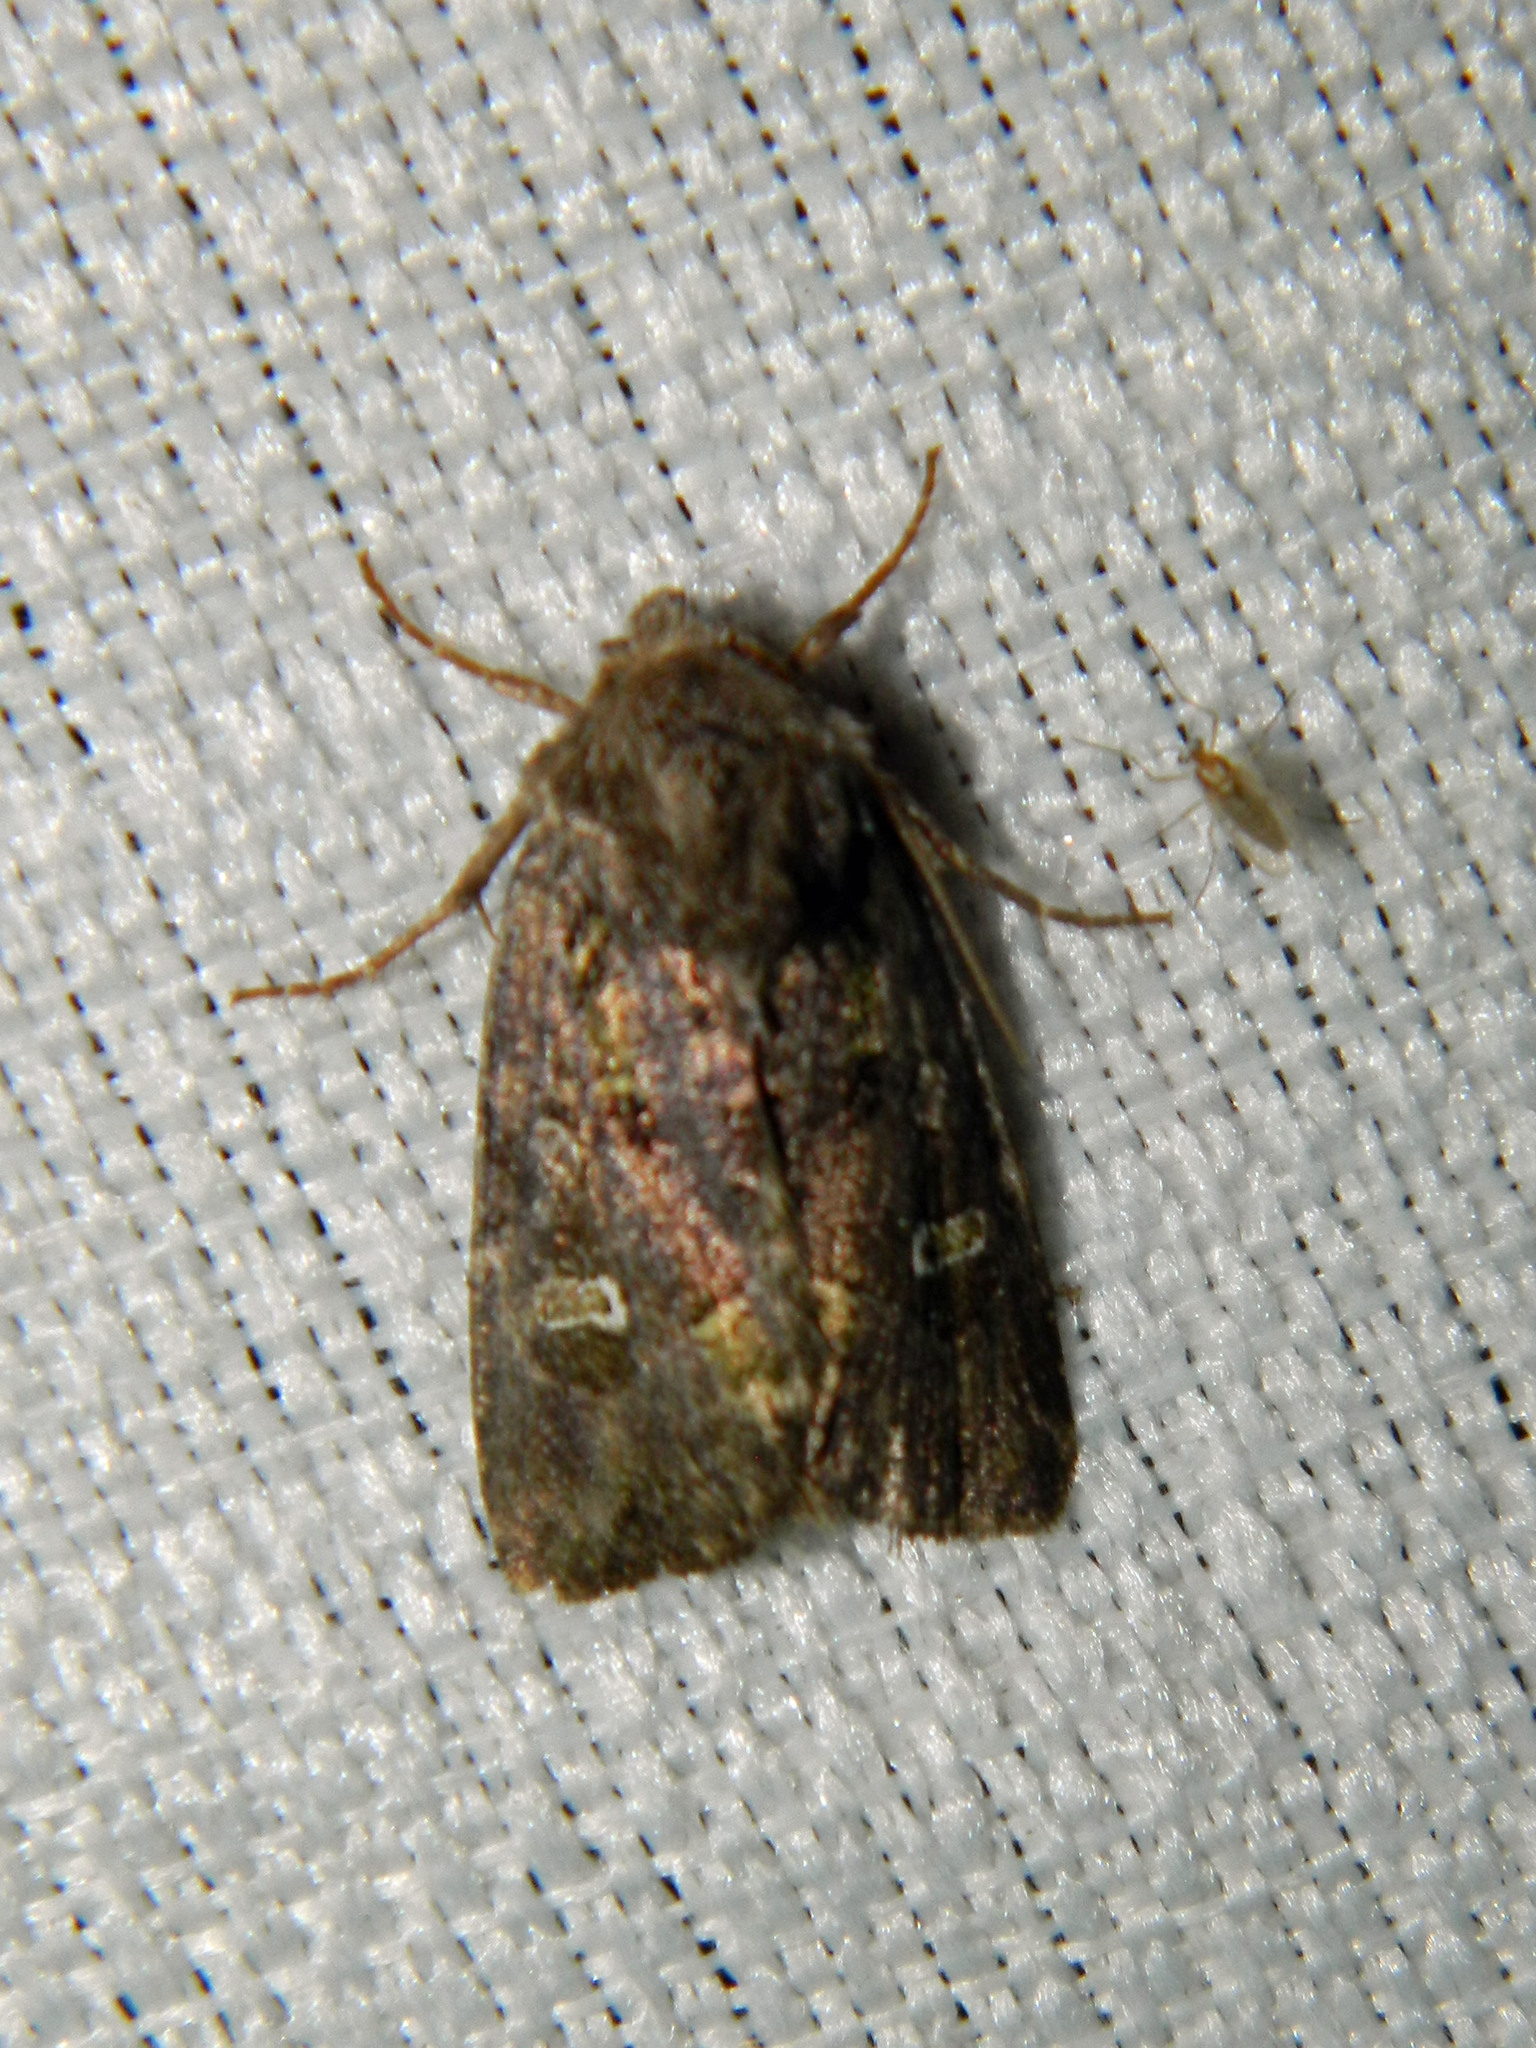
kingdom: Animalia
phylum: Arthropoda
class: Insecta
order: Lepidoptera
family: Noctuidae
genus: Lacinipolia
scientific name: Lacinipolia renigera
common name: Kidney-spotted minor
